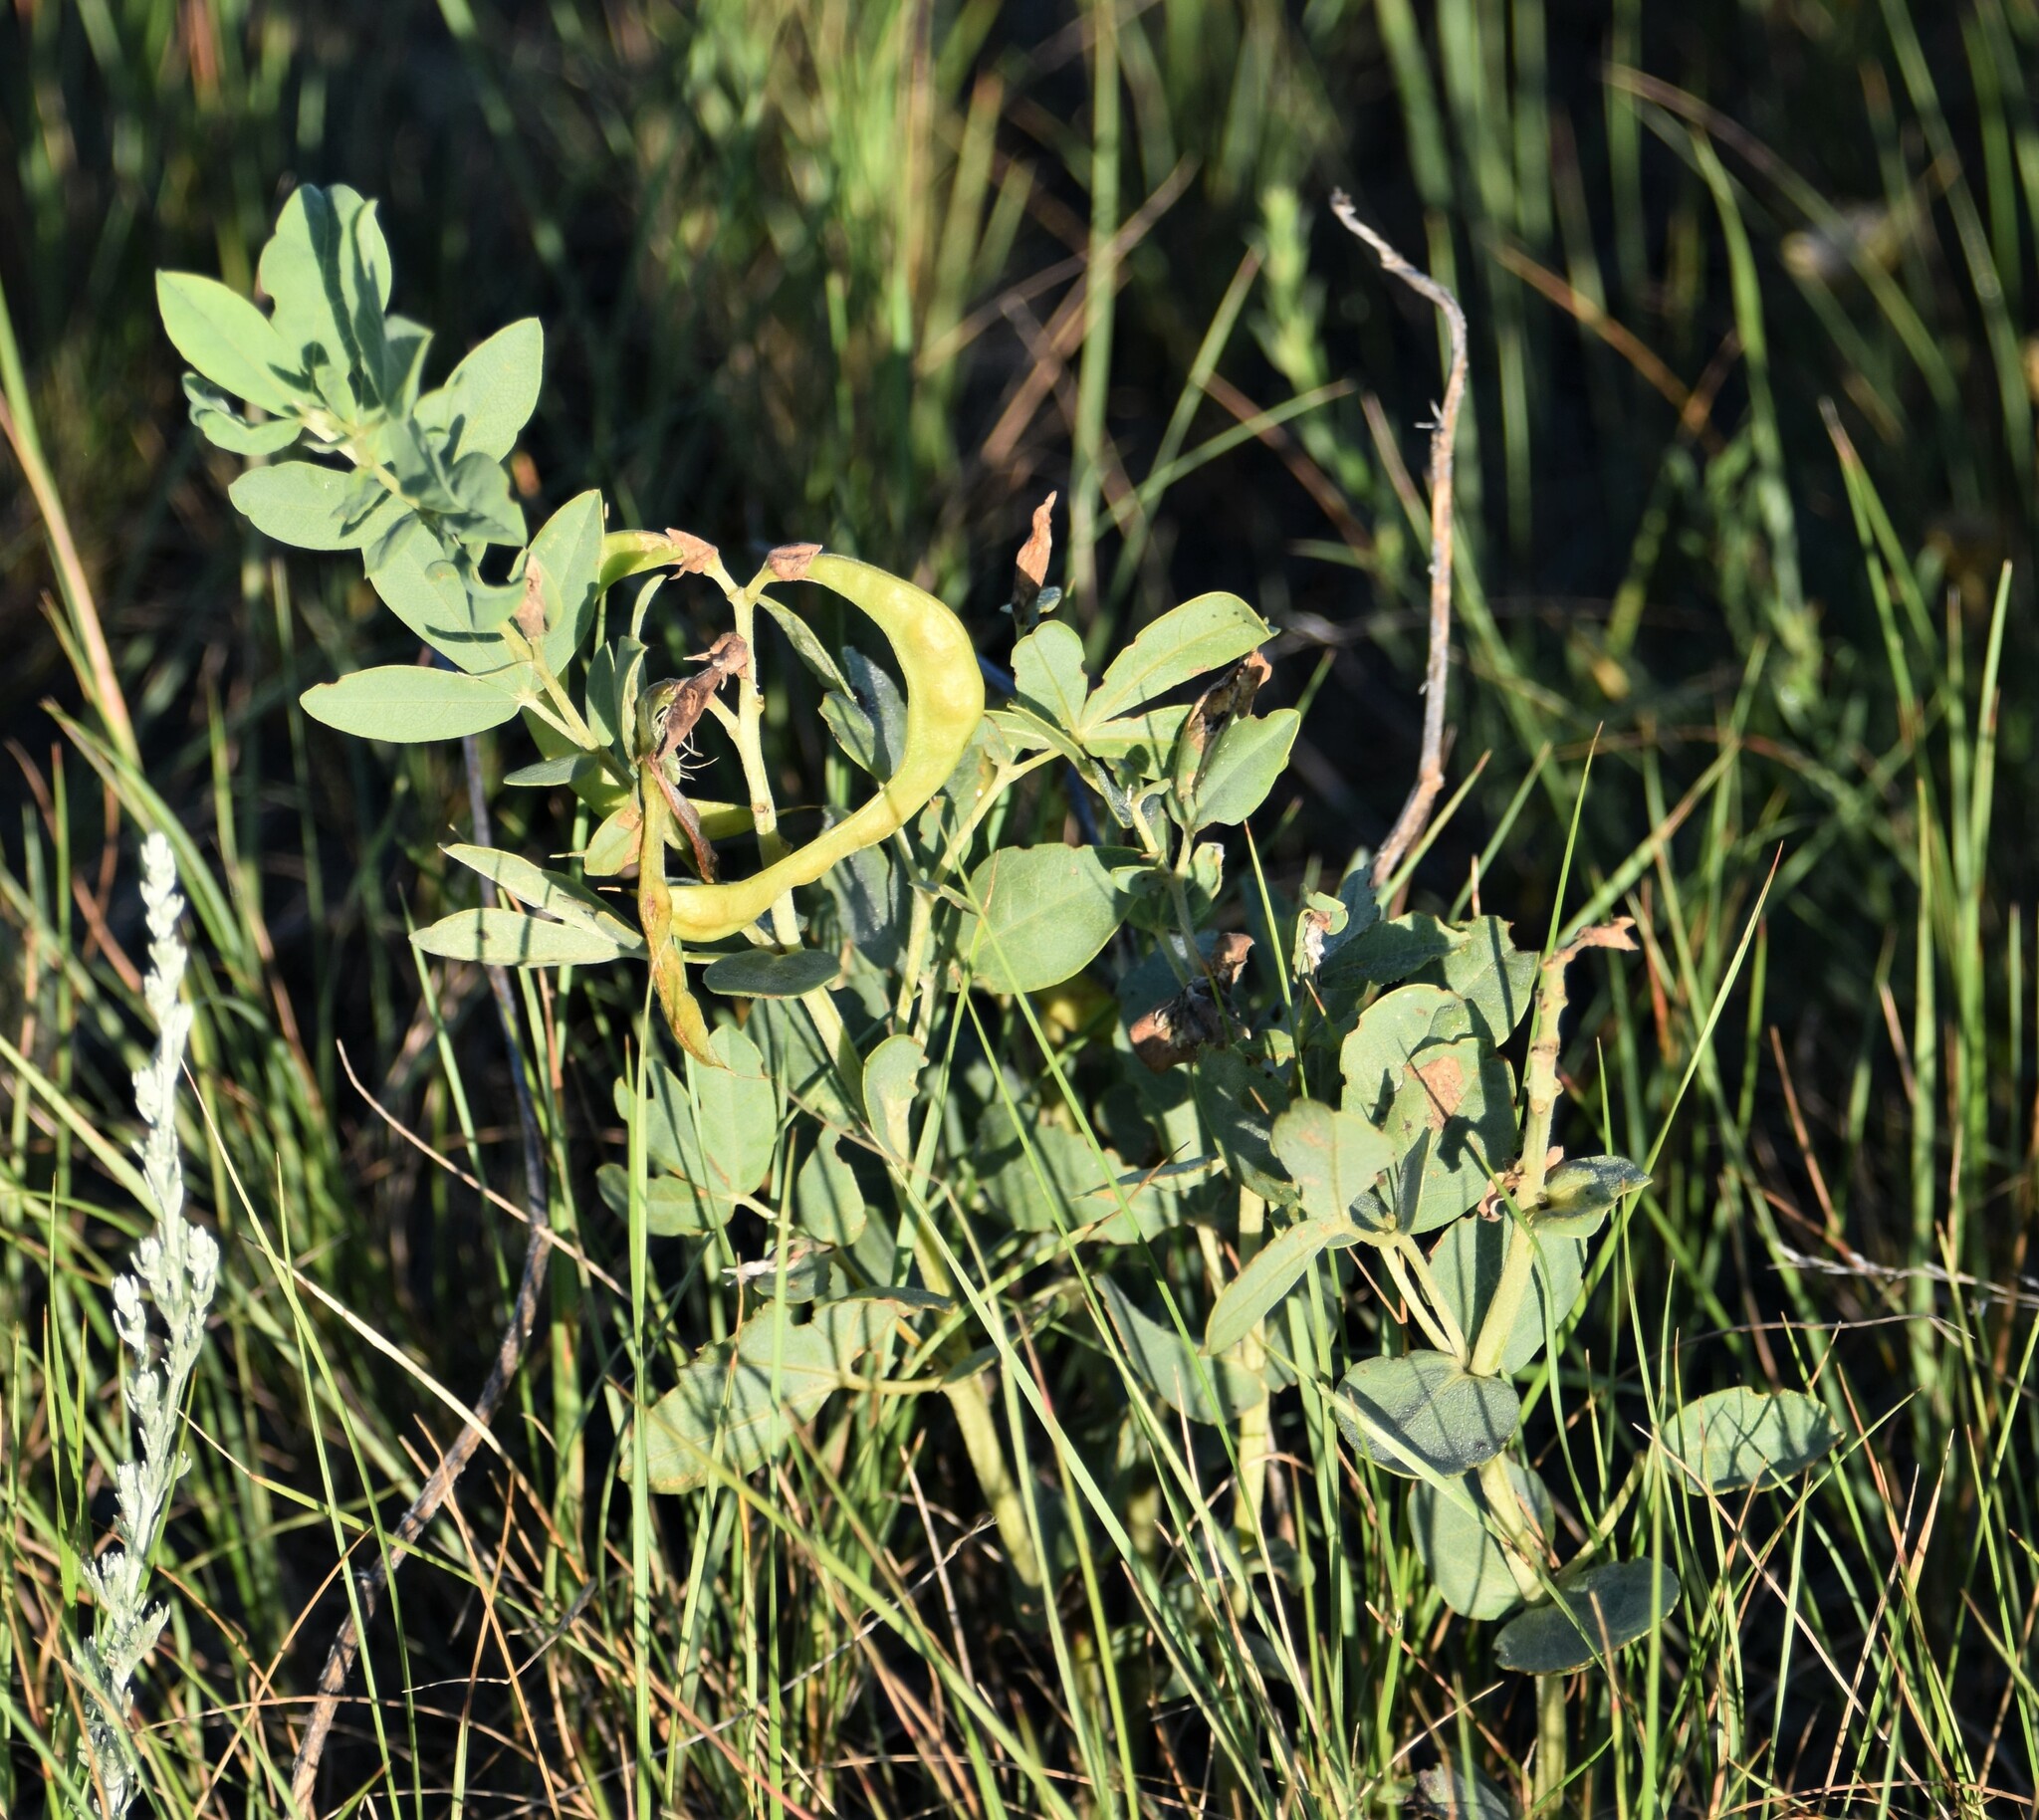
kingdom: Plantae
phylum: Tracheophyta
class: Magnoliopsida
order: Fabales
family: Fabaceae
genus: Thermopsis
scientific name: Thermopsis rhombifolia
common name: Circle-pod-pea
